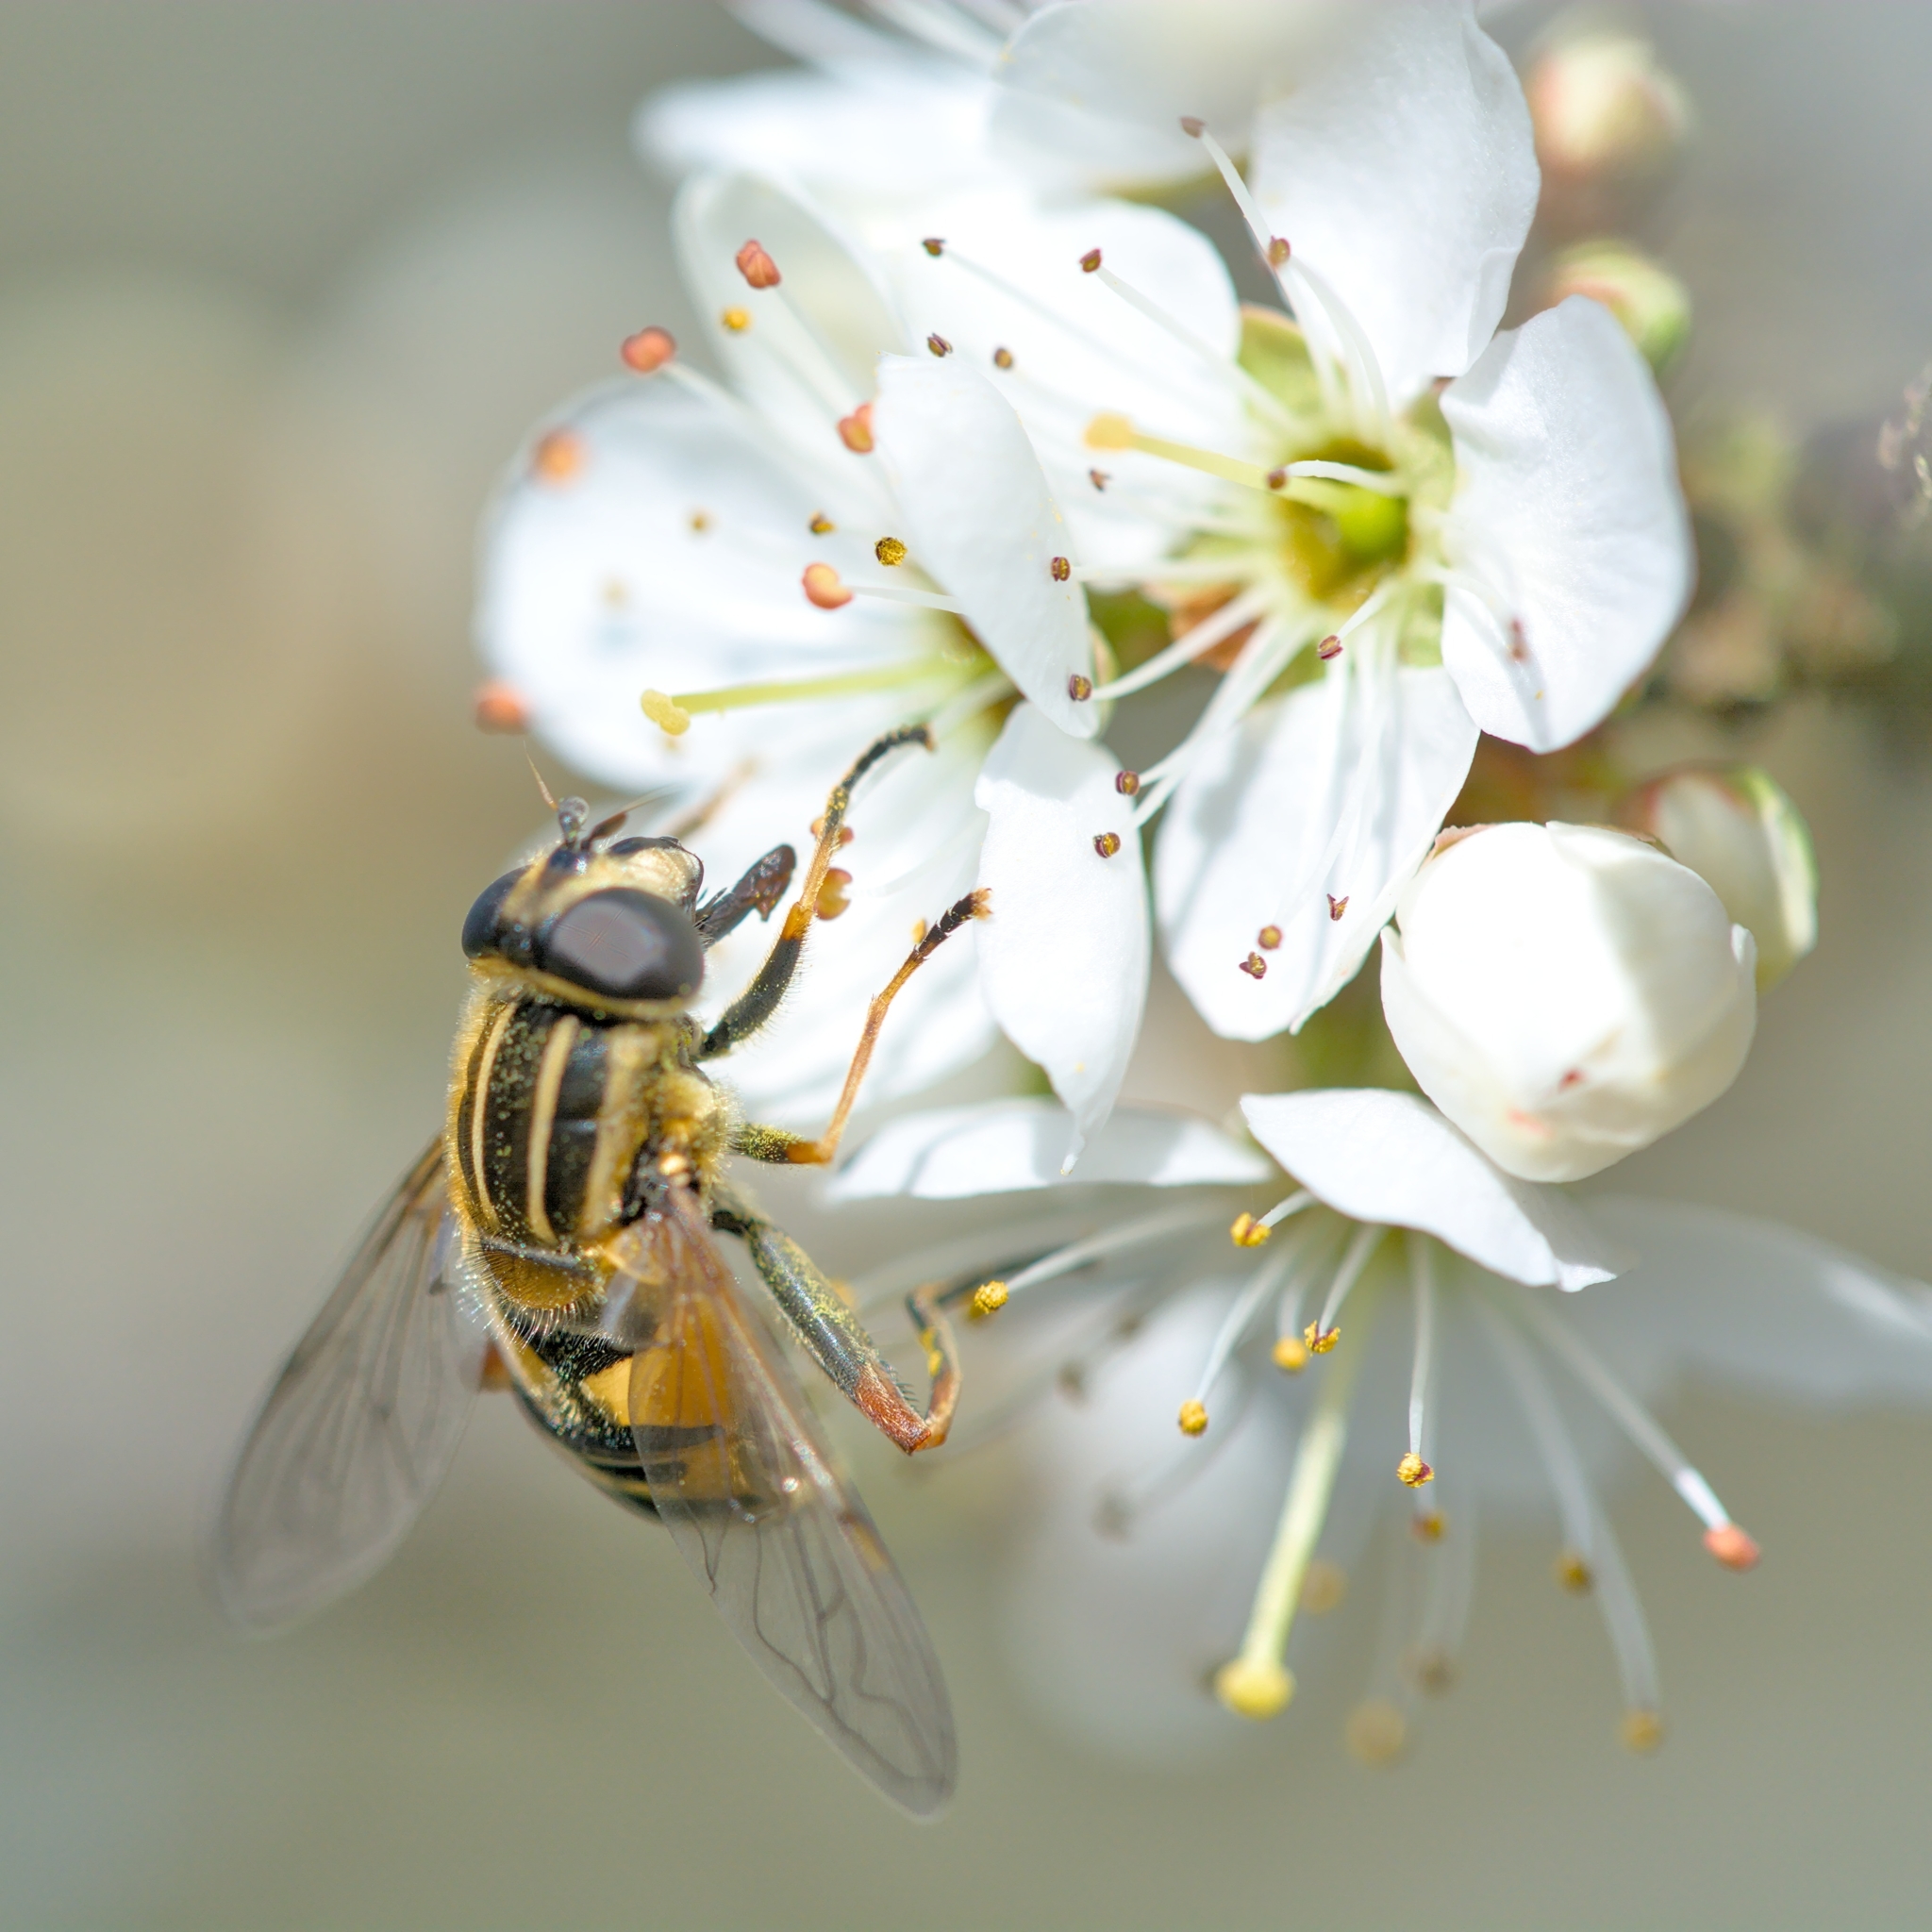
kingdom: Animalia
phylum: Arthropoda
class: Insecta
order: Diptera
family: Syrphidae
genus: Helophilus
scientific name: Helophilus pendulus
